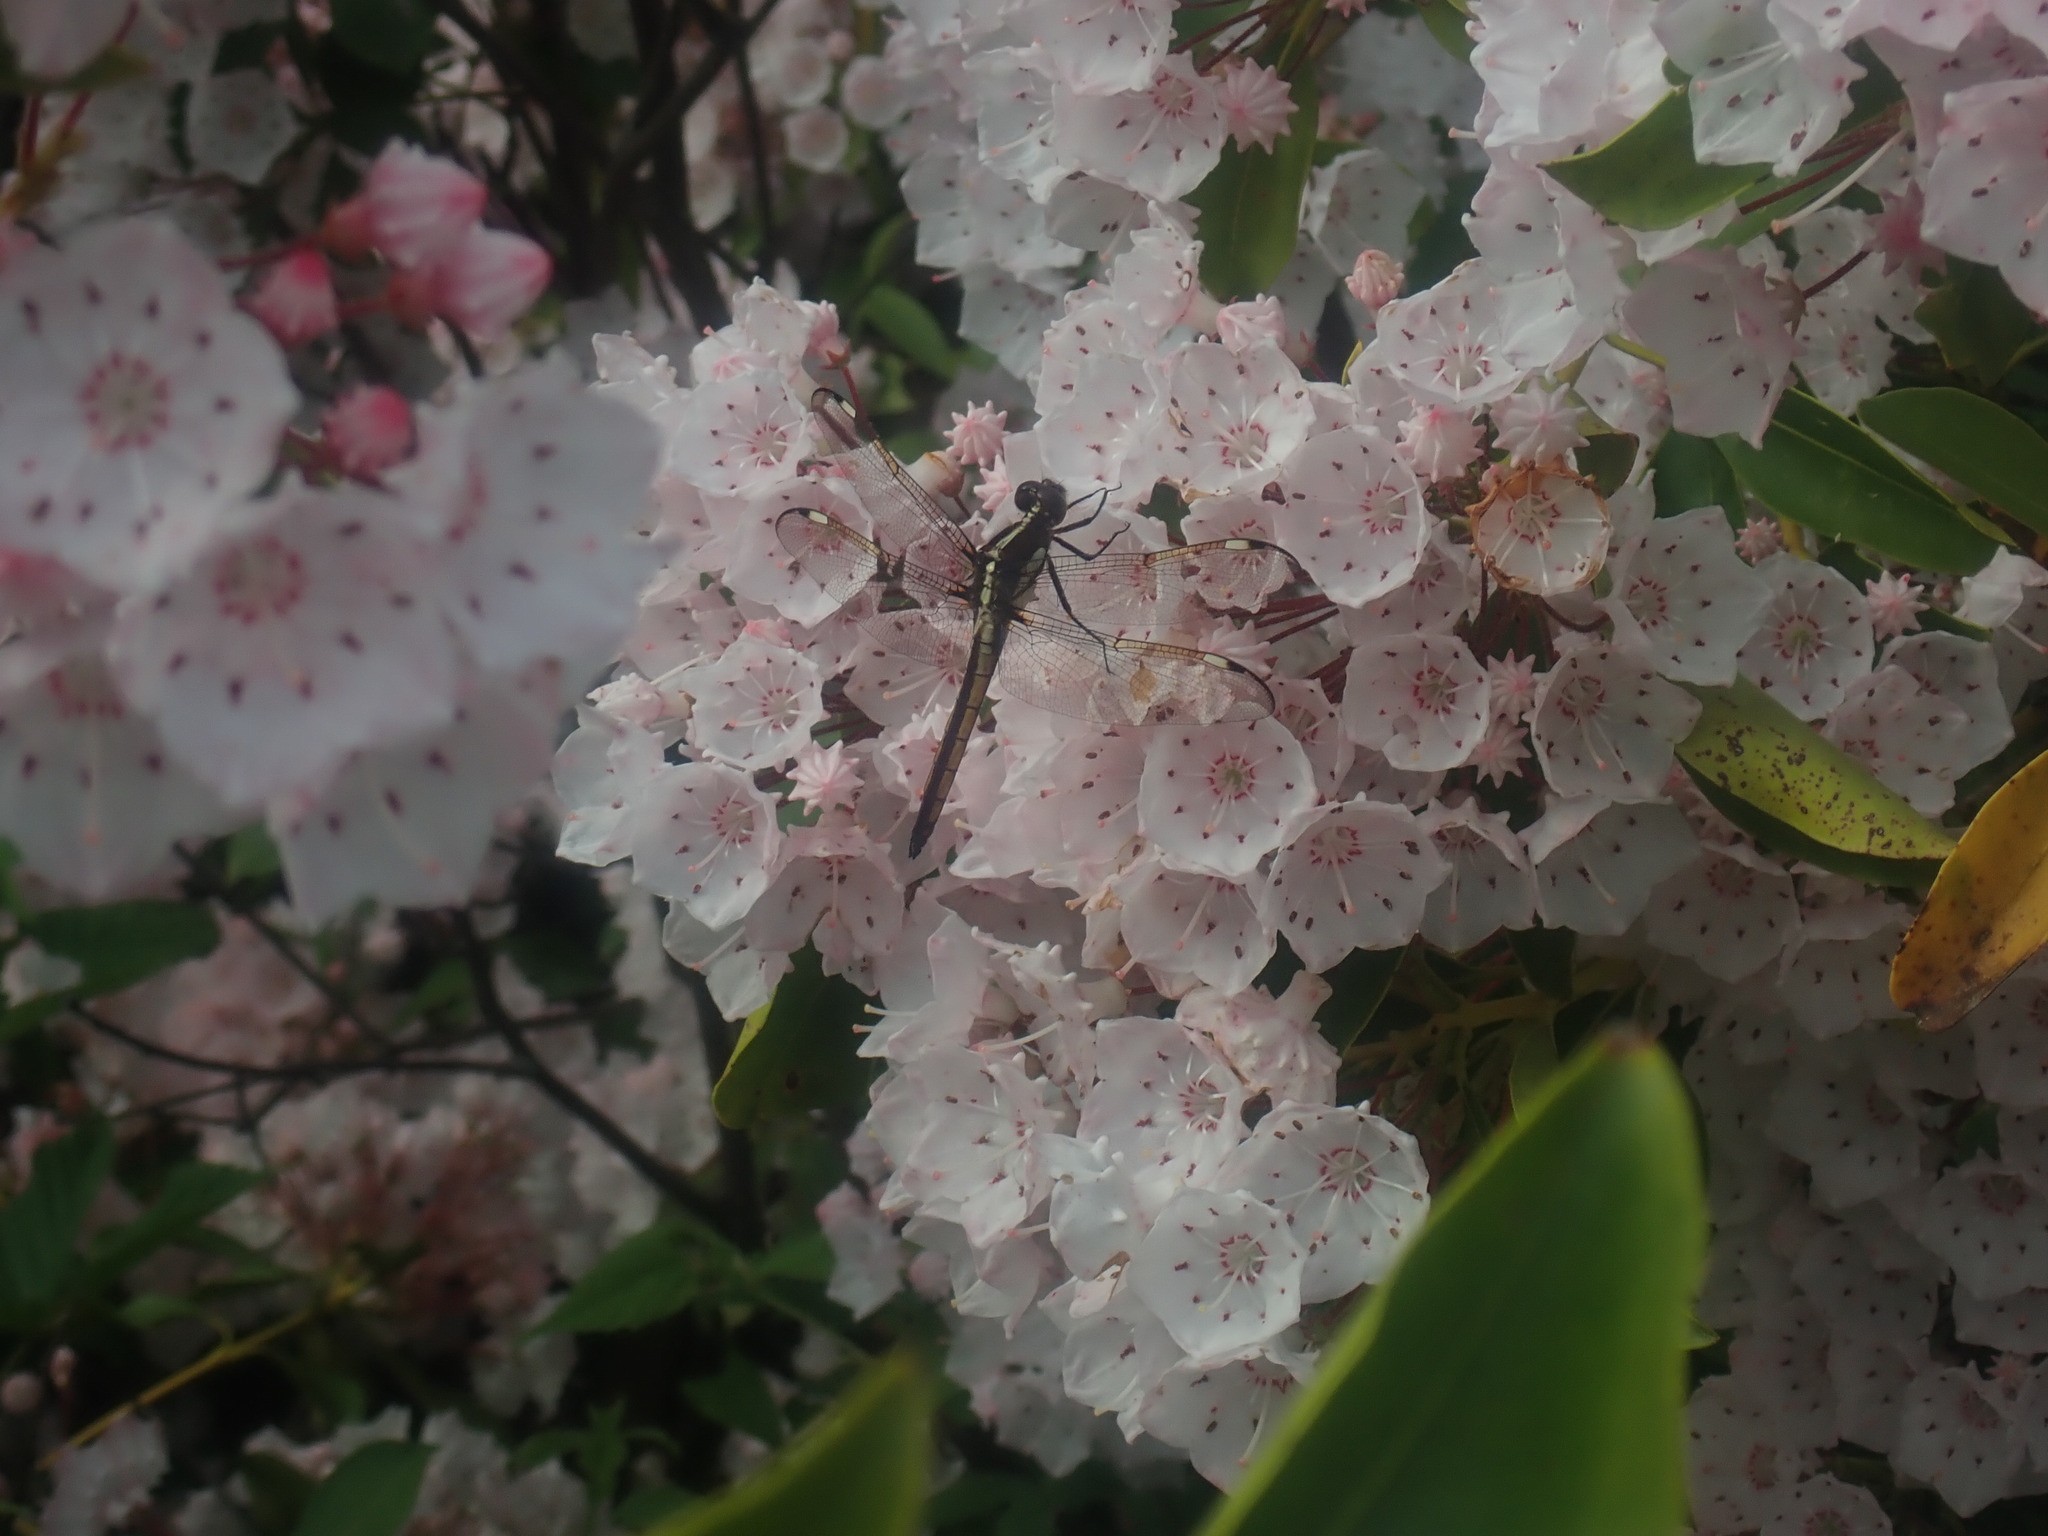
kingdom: Animalia
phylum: Arthropoda
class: Insecta
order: Odonata
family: Libellulidae
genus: Libellula
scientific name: Libellula cyanea
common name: Spangled skimmer
